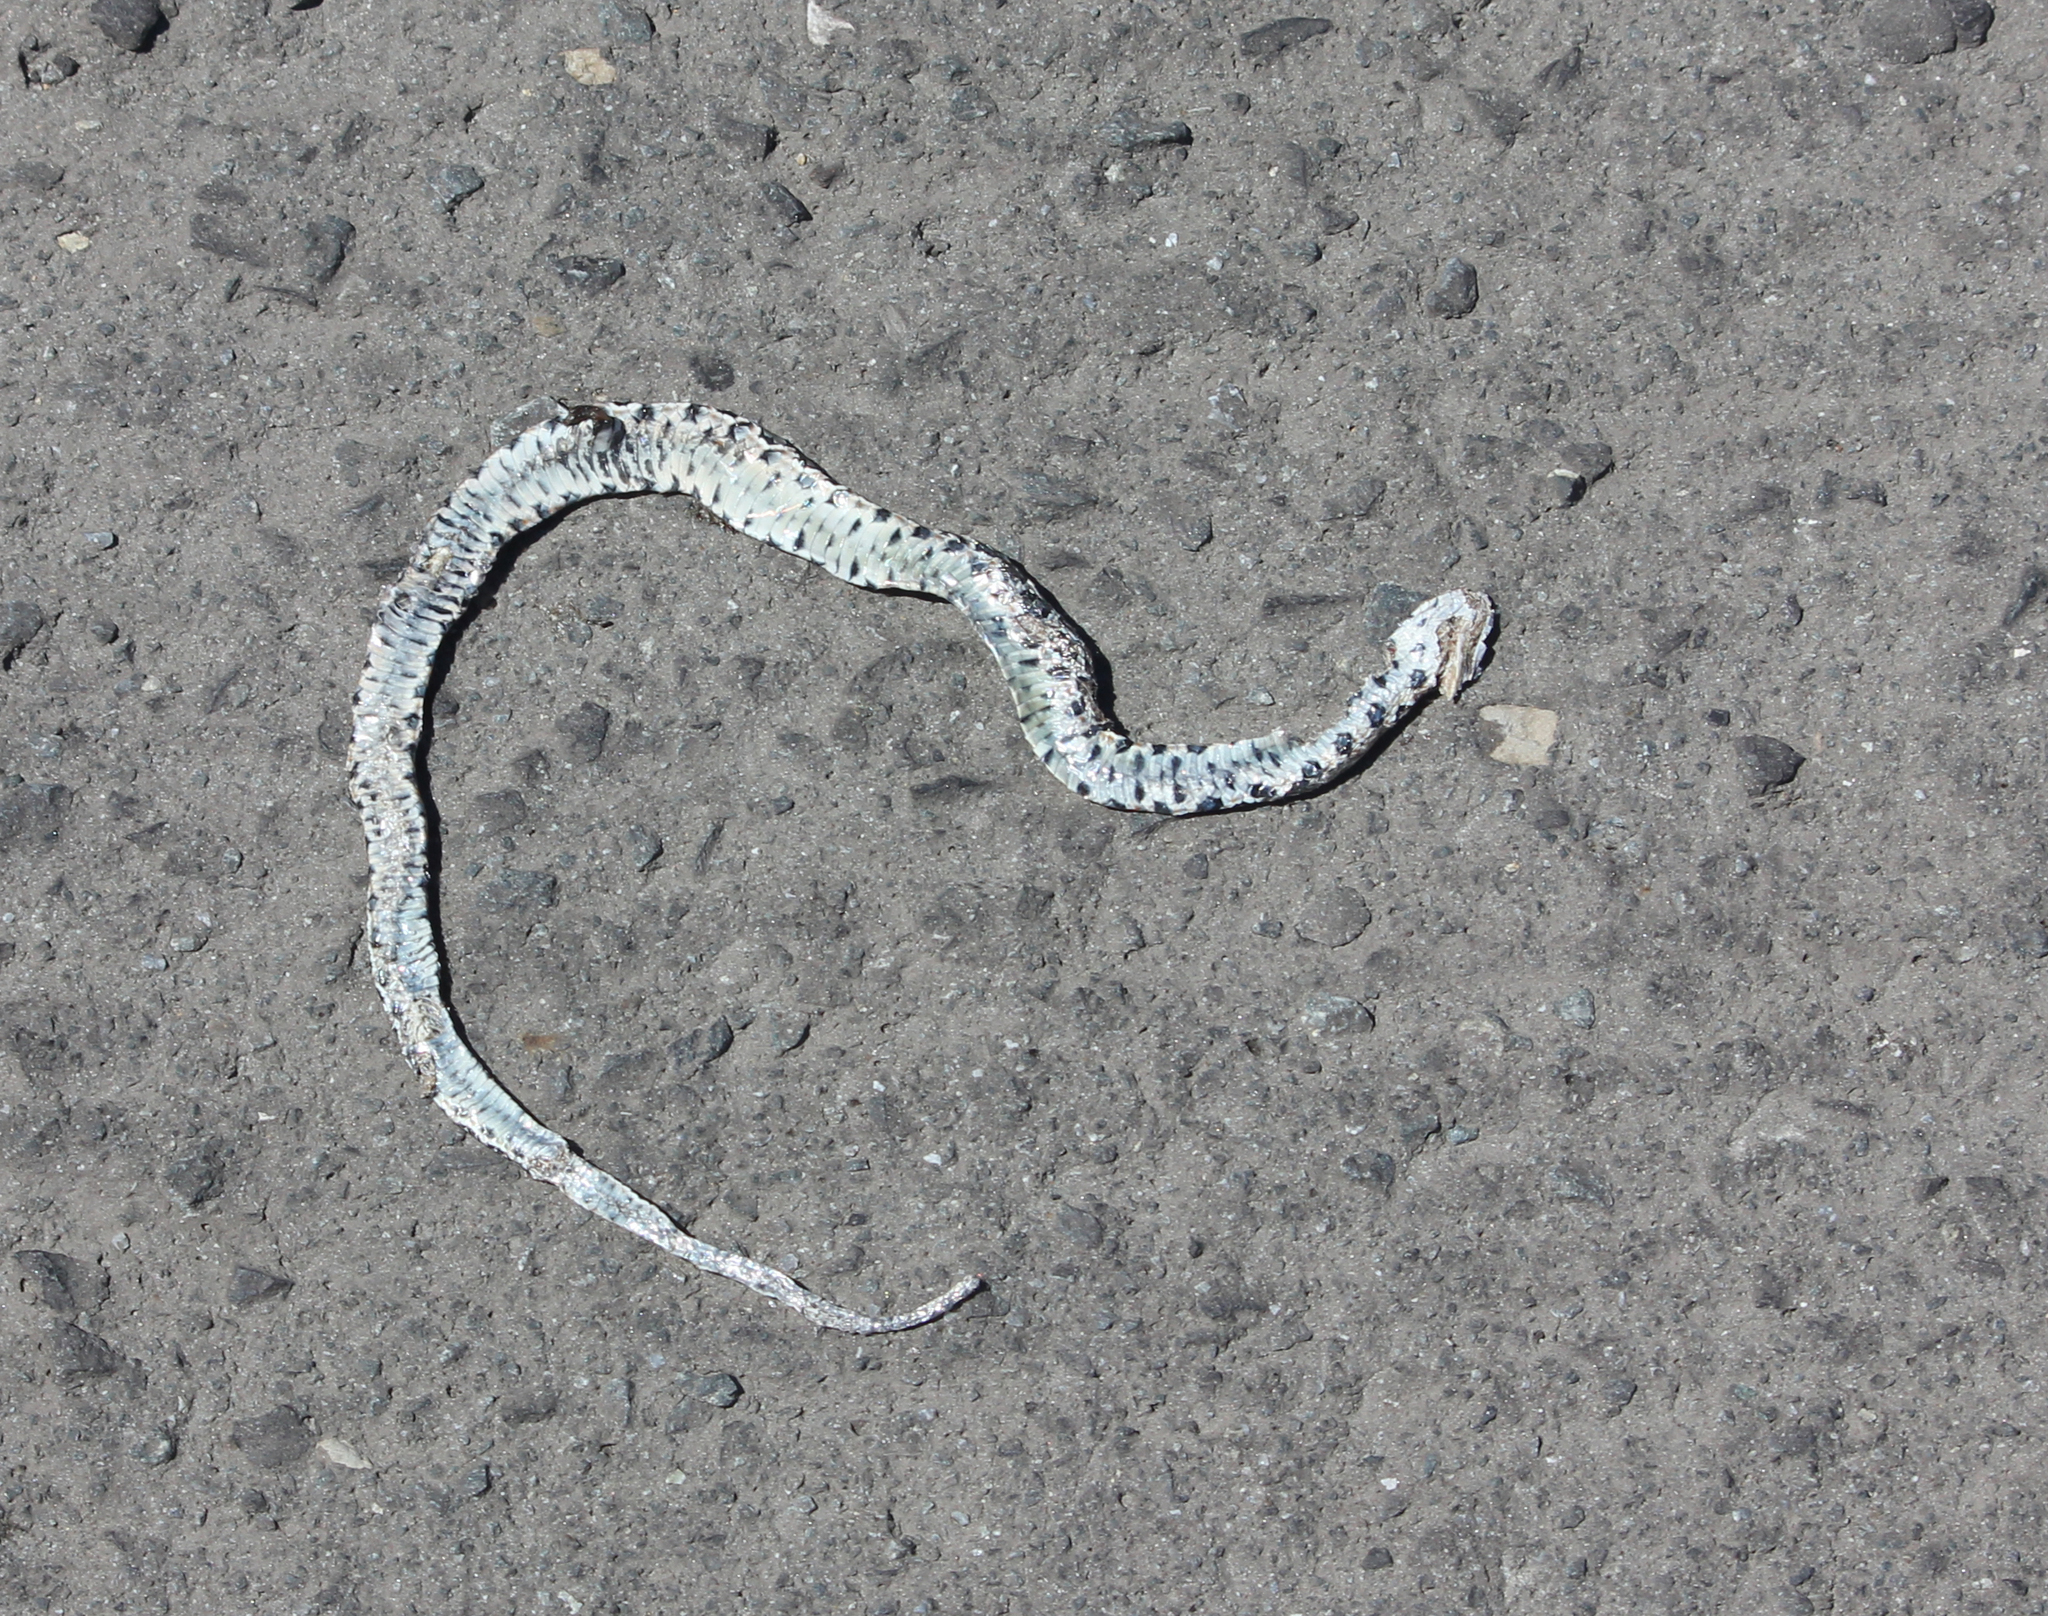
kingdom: Animalia
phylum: Chordata
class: Squamata
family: Psammophiidae
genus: Psammophylax
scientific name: Psammophylax rhombeatus
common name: Rhombic skaapsteker
